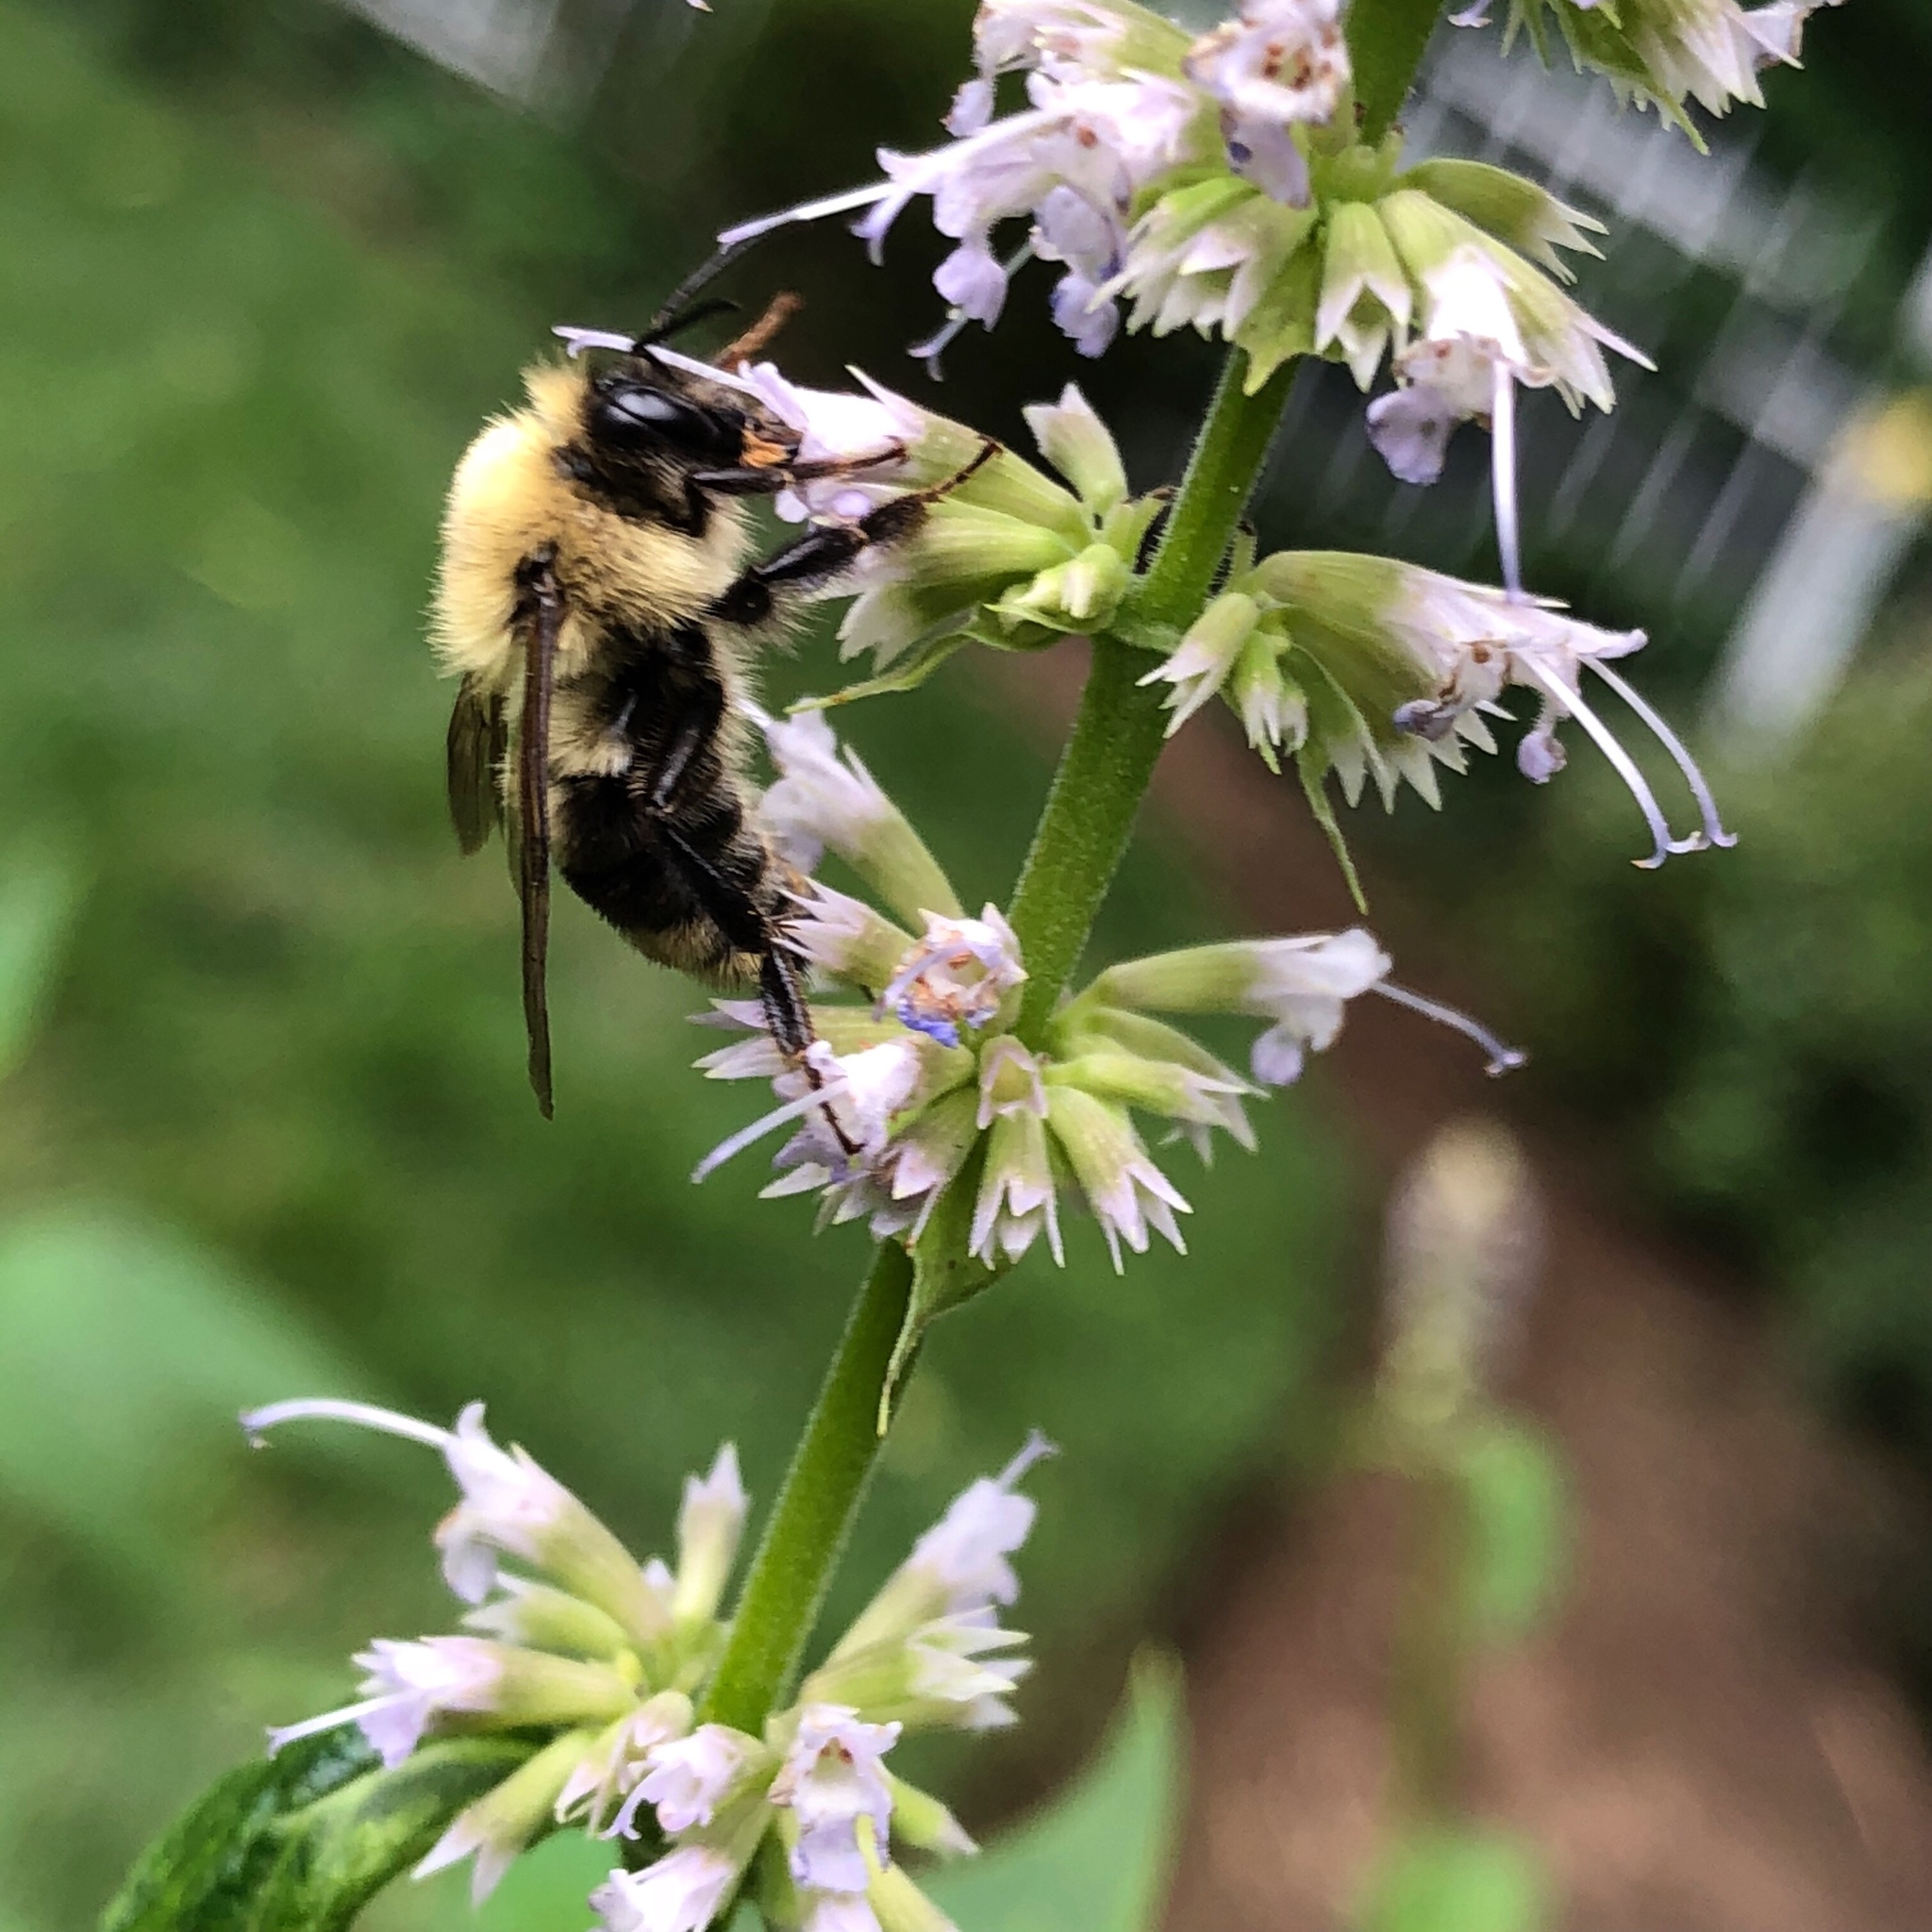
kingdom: Animalia
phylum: Arthropoda
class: Insecta
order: Hymenoptera
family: Apidae
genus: Bombus
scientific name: Bombus bimaculatus
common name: Two-spotted bumble bee
